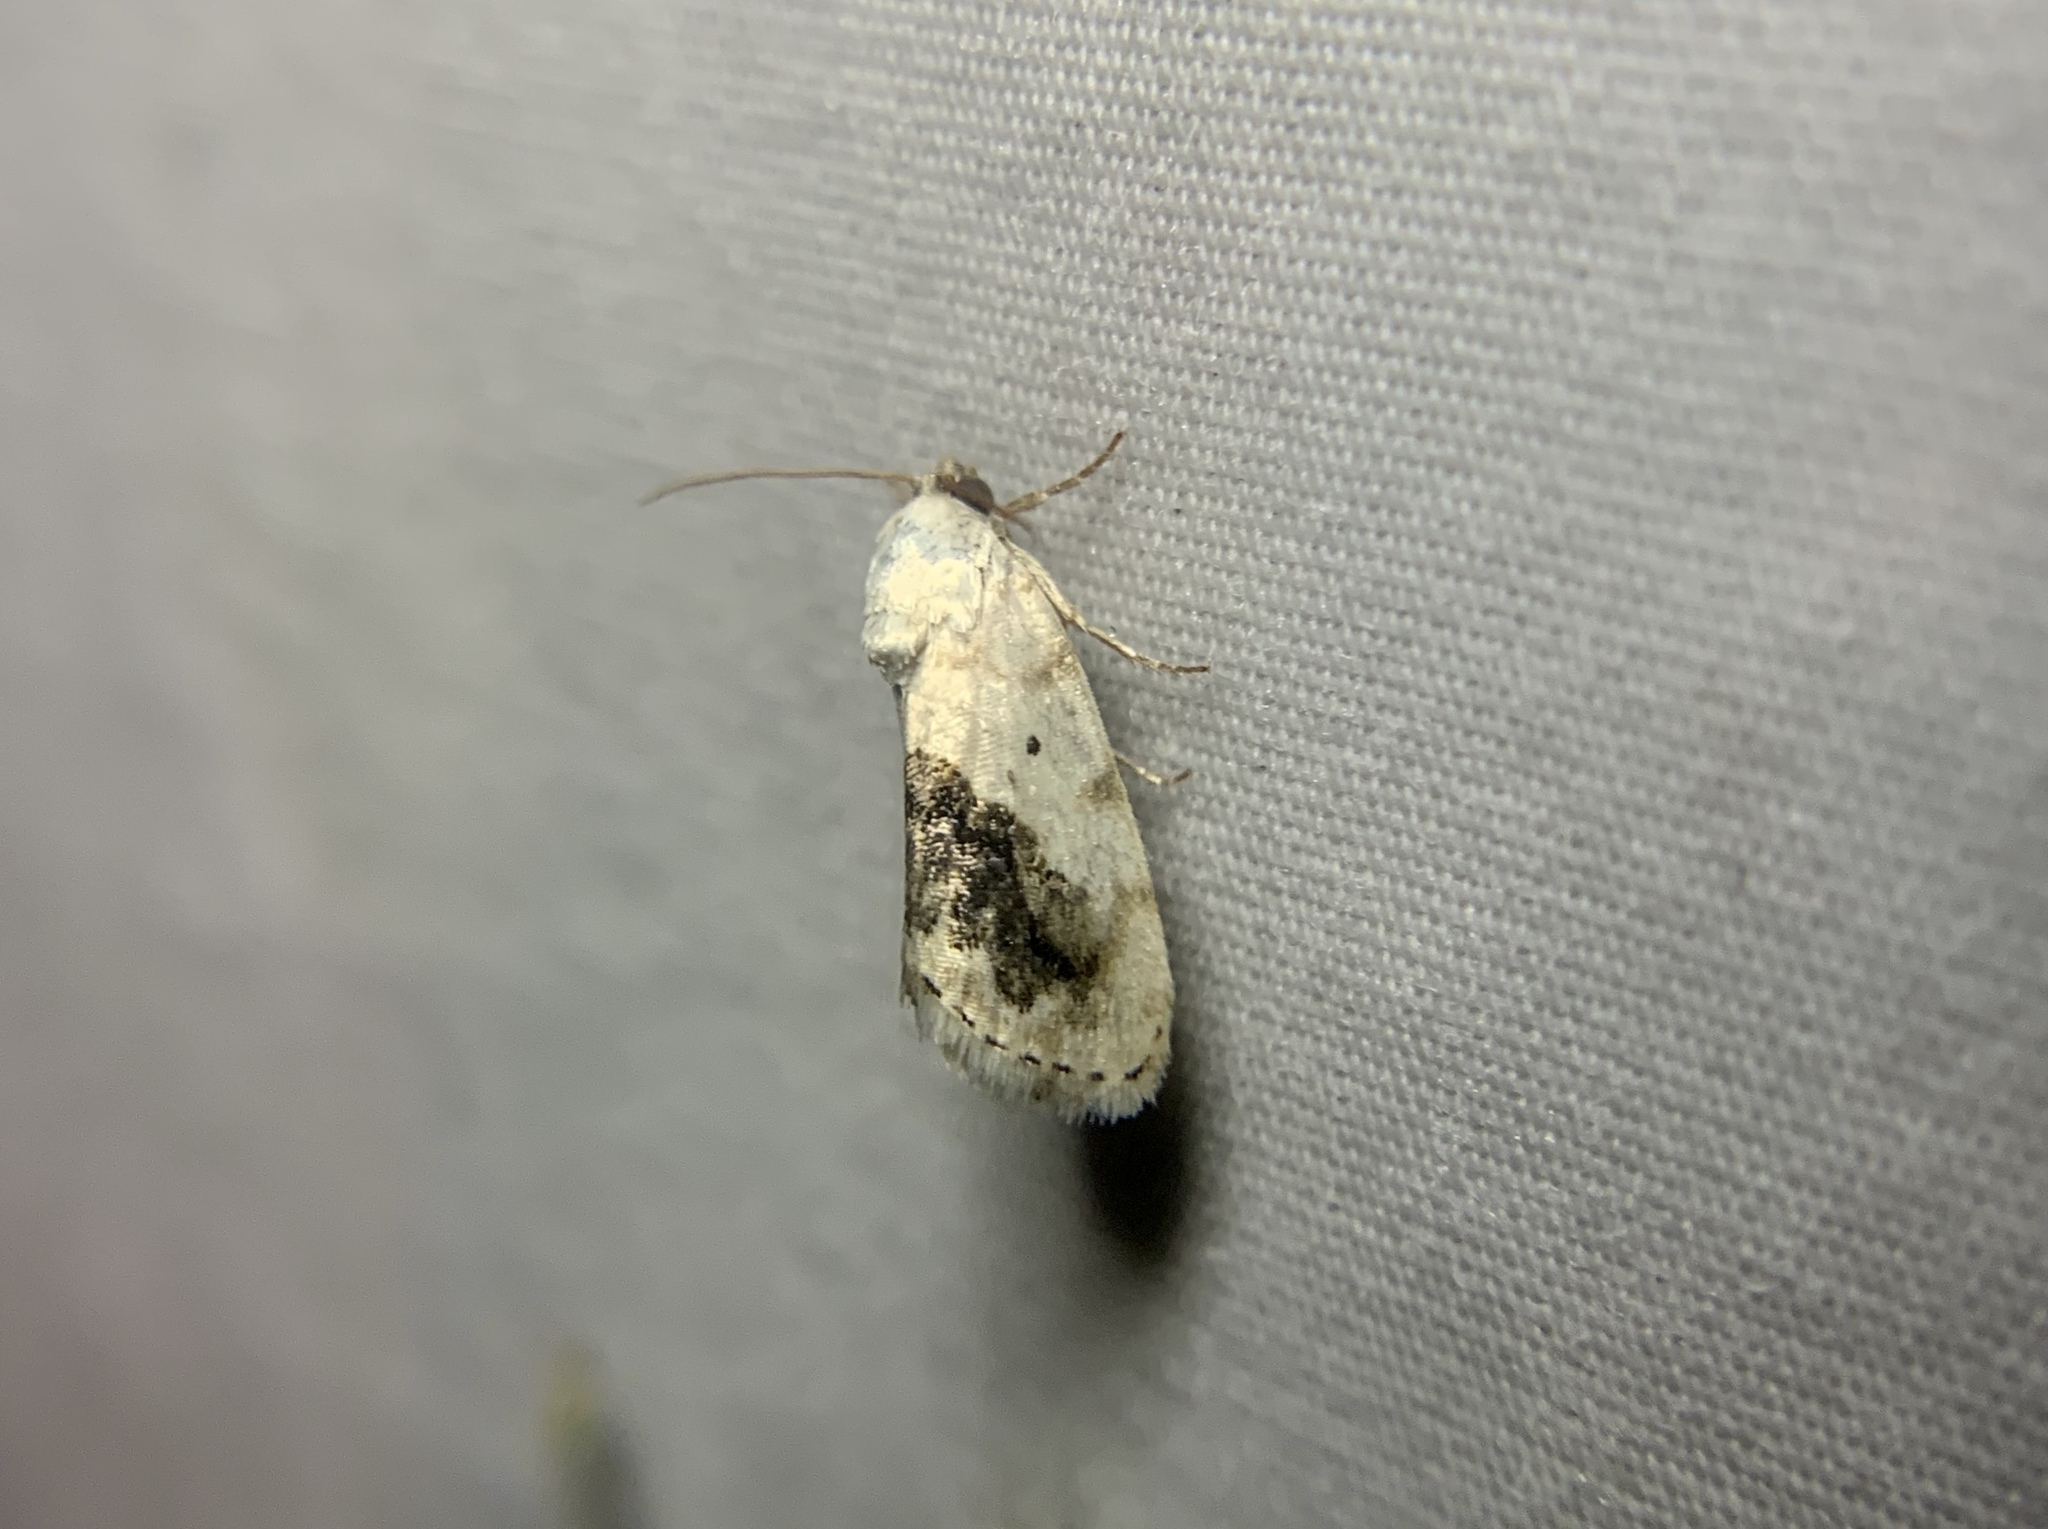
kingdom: Animalia
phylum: Arthropoda
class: Insecta
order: Lepidoptera
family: Noctuidae
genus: Acontia
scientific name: Acontia erastrioides
